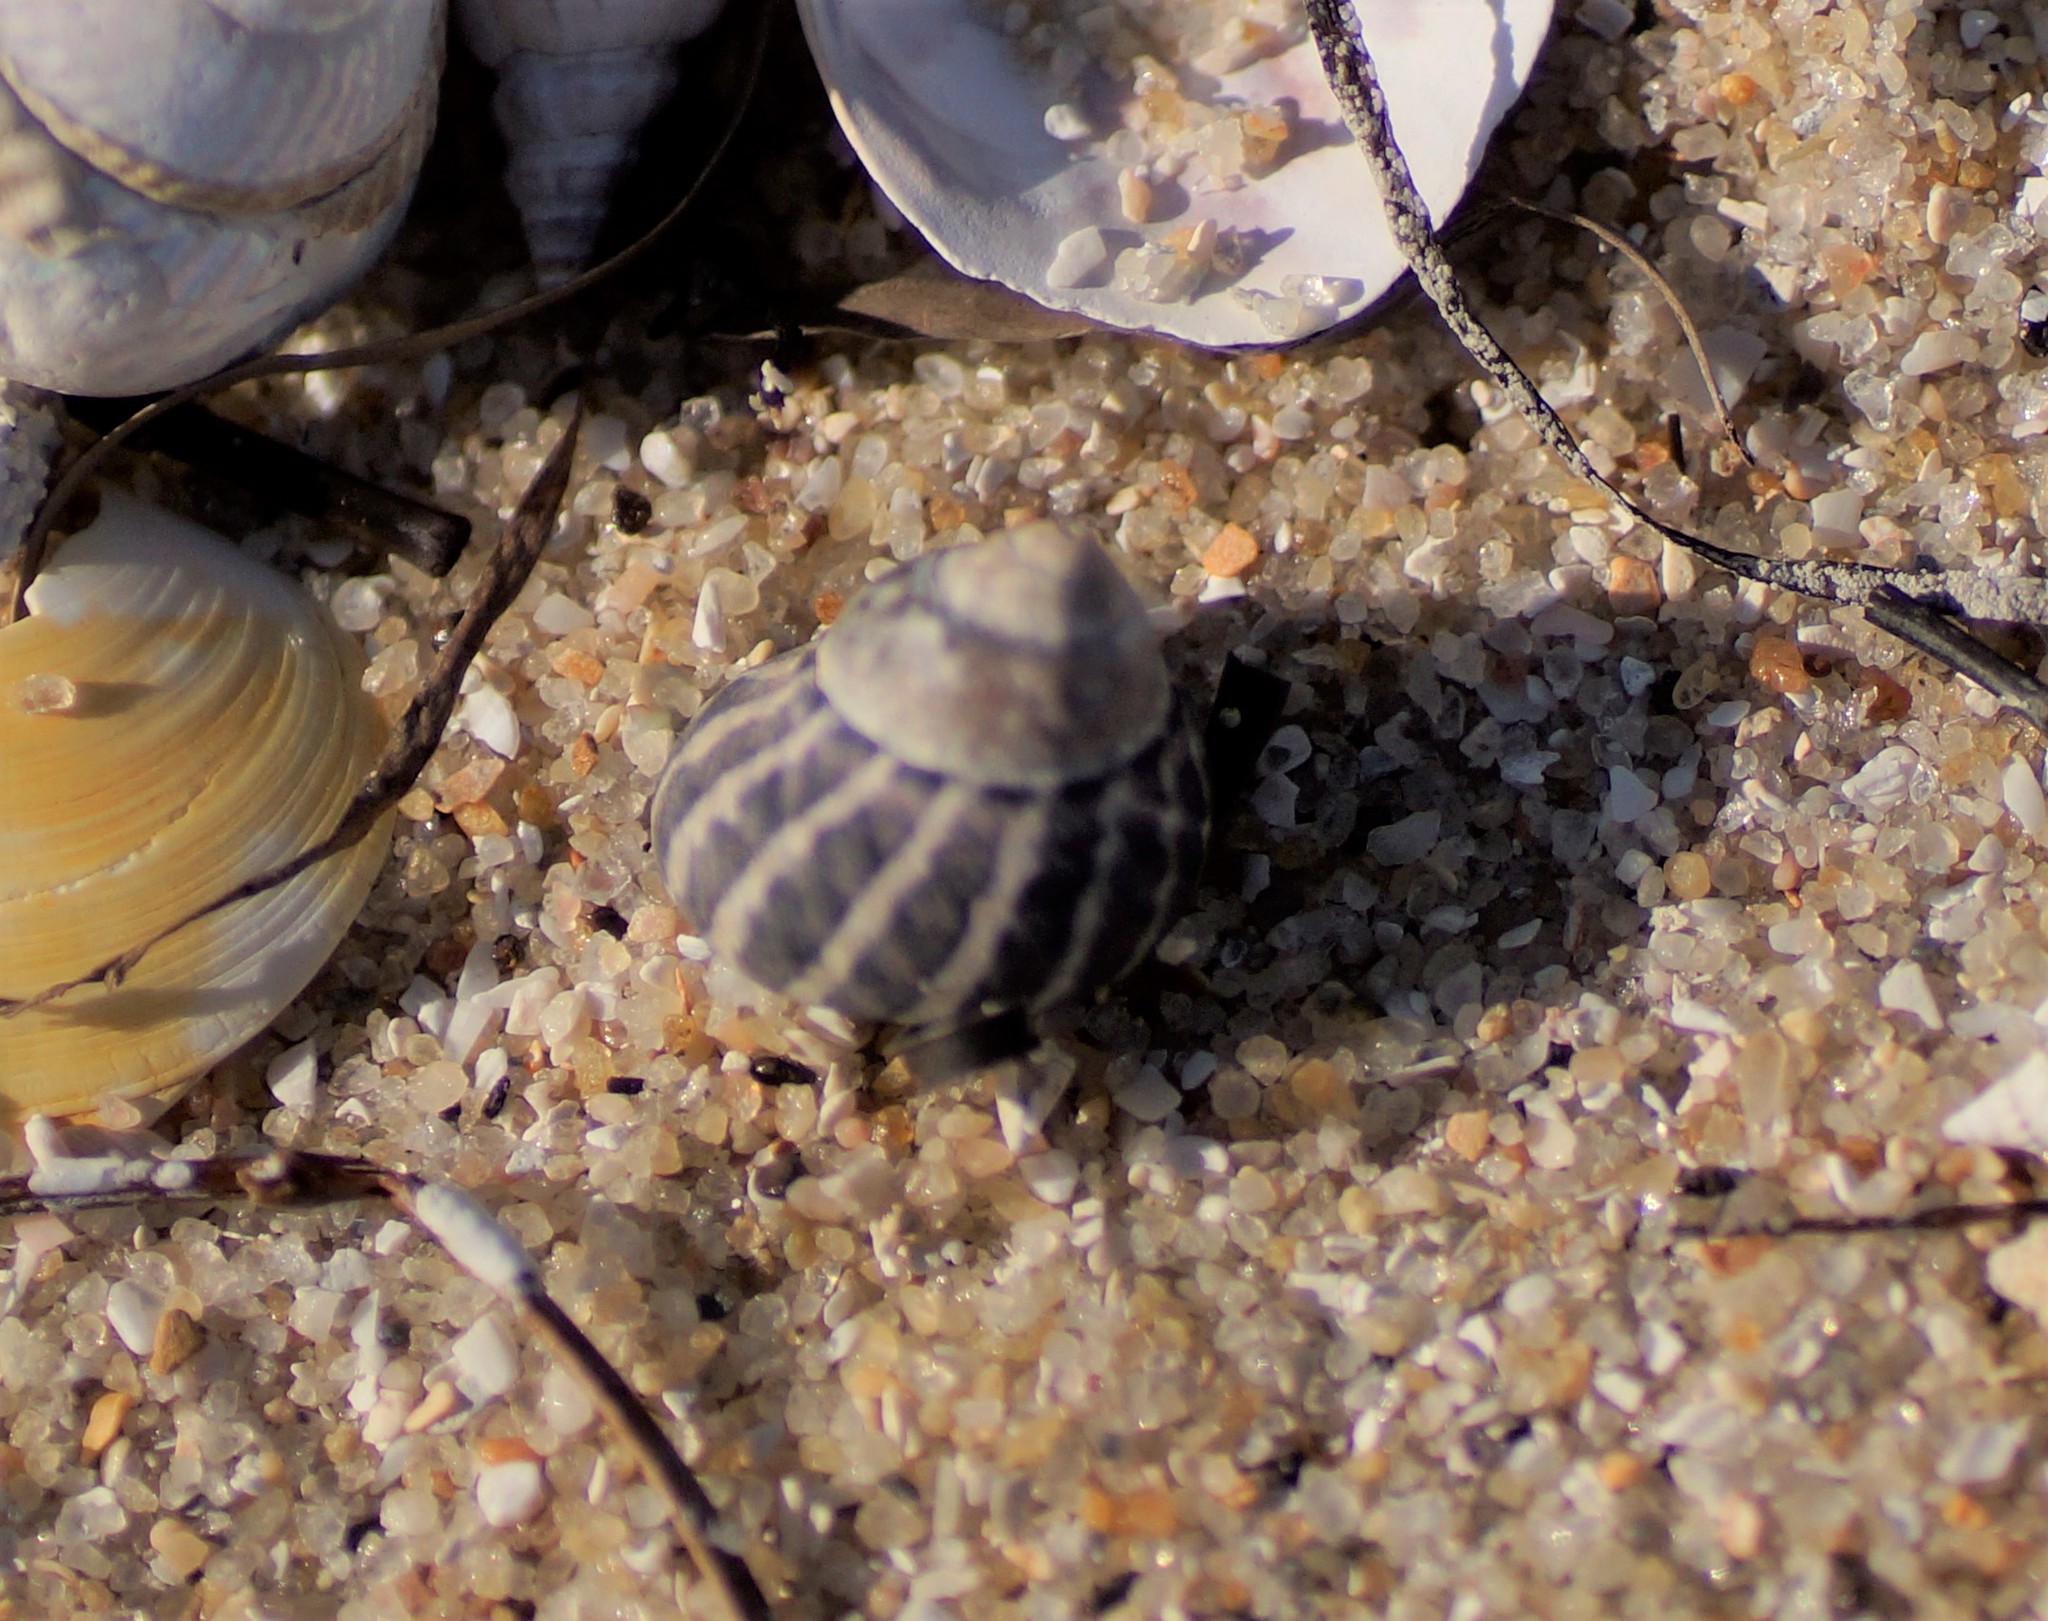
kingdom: Animalia
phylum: Mollusca
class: Gastropoda
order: Trochida
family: Trochidae
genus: Austrocochlea
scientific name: Austrocochlea porcata
